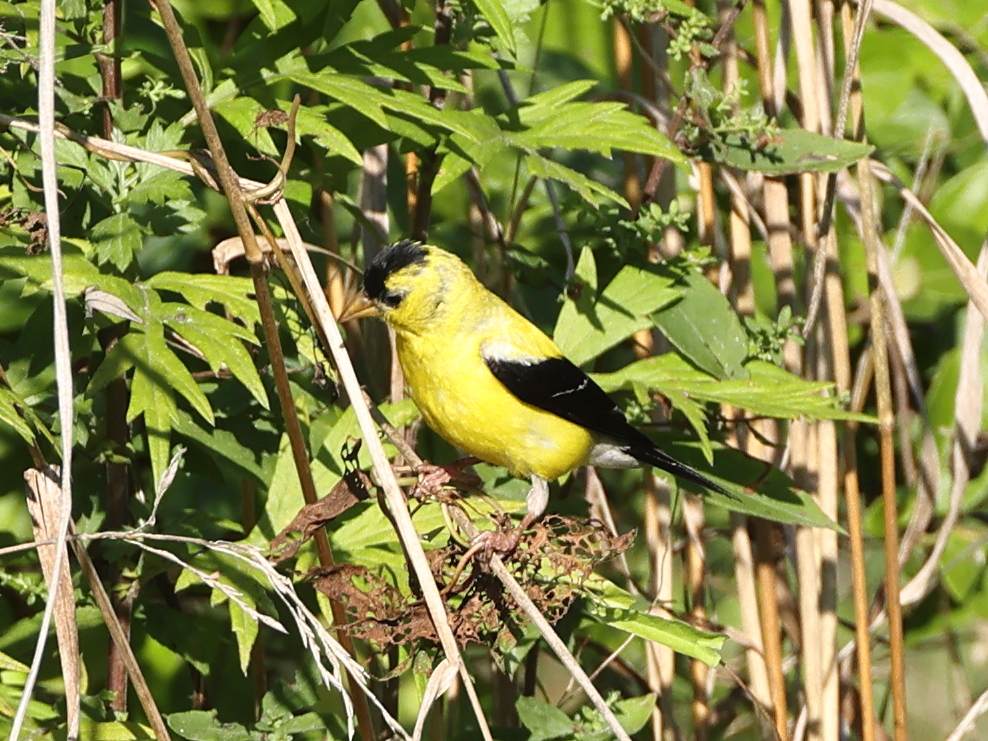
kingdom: Animalia
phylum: Chordata
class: Aves
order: Passeriformes
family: Fringillidae
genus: Spinus
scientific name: Spinus tristis
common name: American goldfinch
